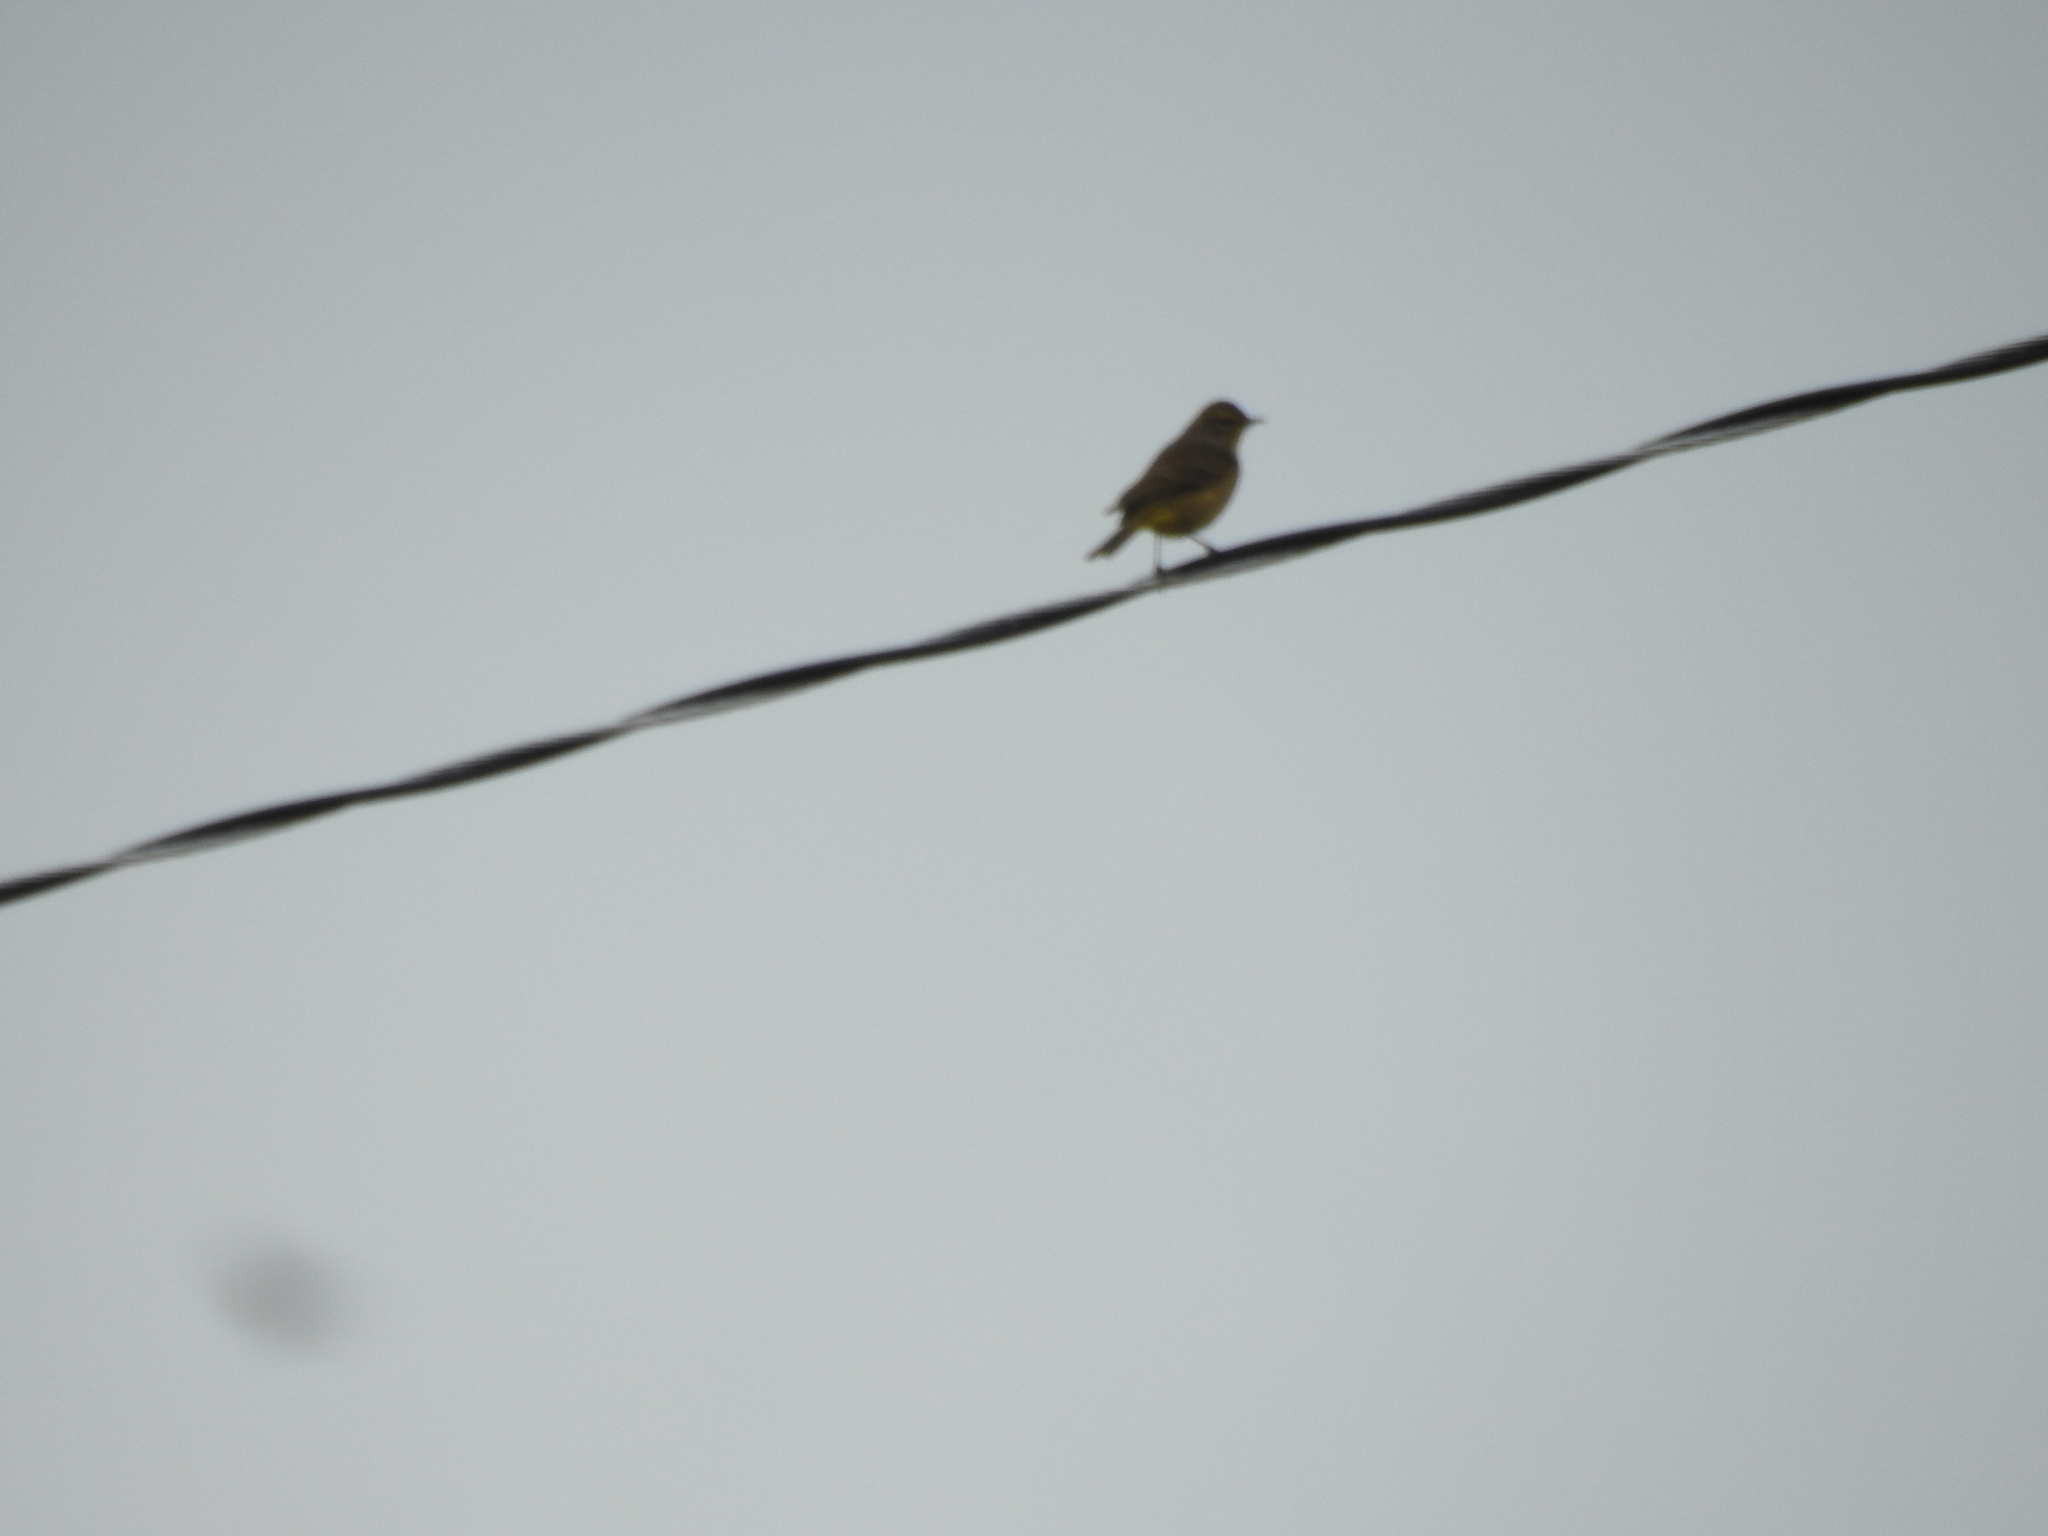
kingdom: Animalia
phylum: Chordata
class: Aves
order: Passeriformes
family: Parulidae
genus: Setophaga
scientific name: Setophaga palmarum
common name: Palm warbler
